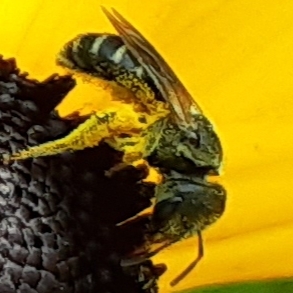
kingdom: Animalia
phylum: Arthropoda
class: Insecta
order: Hymenoptera
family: Halictidae
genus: Halictus
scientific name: Halictus ligatus
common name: Ligated furrow bee
